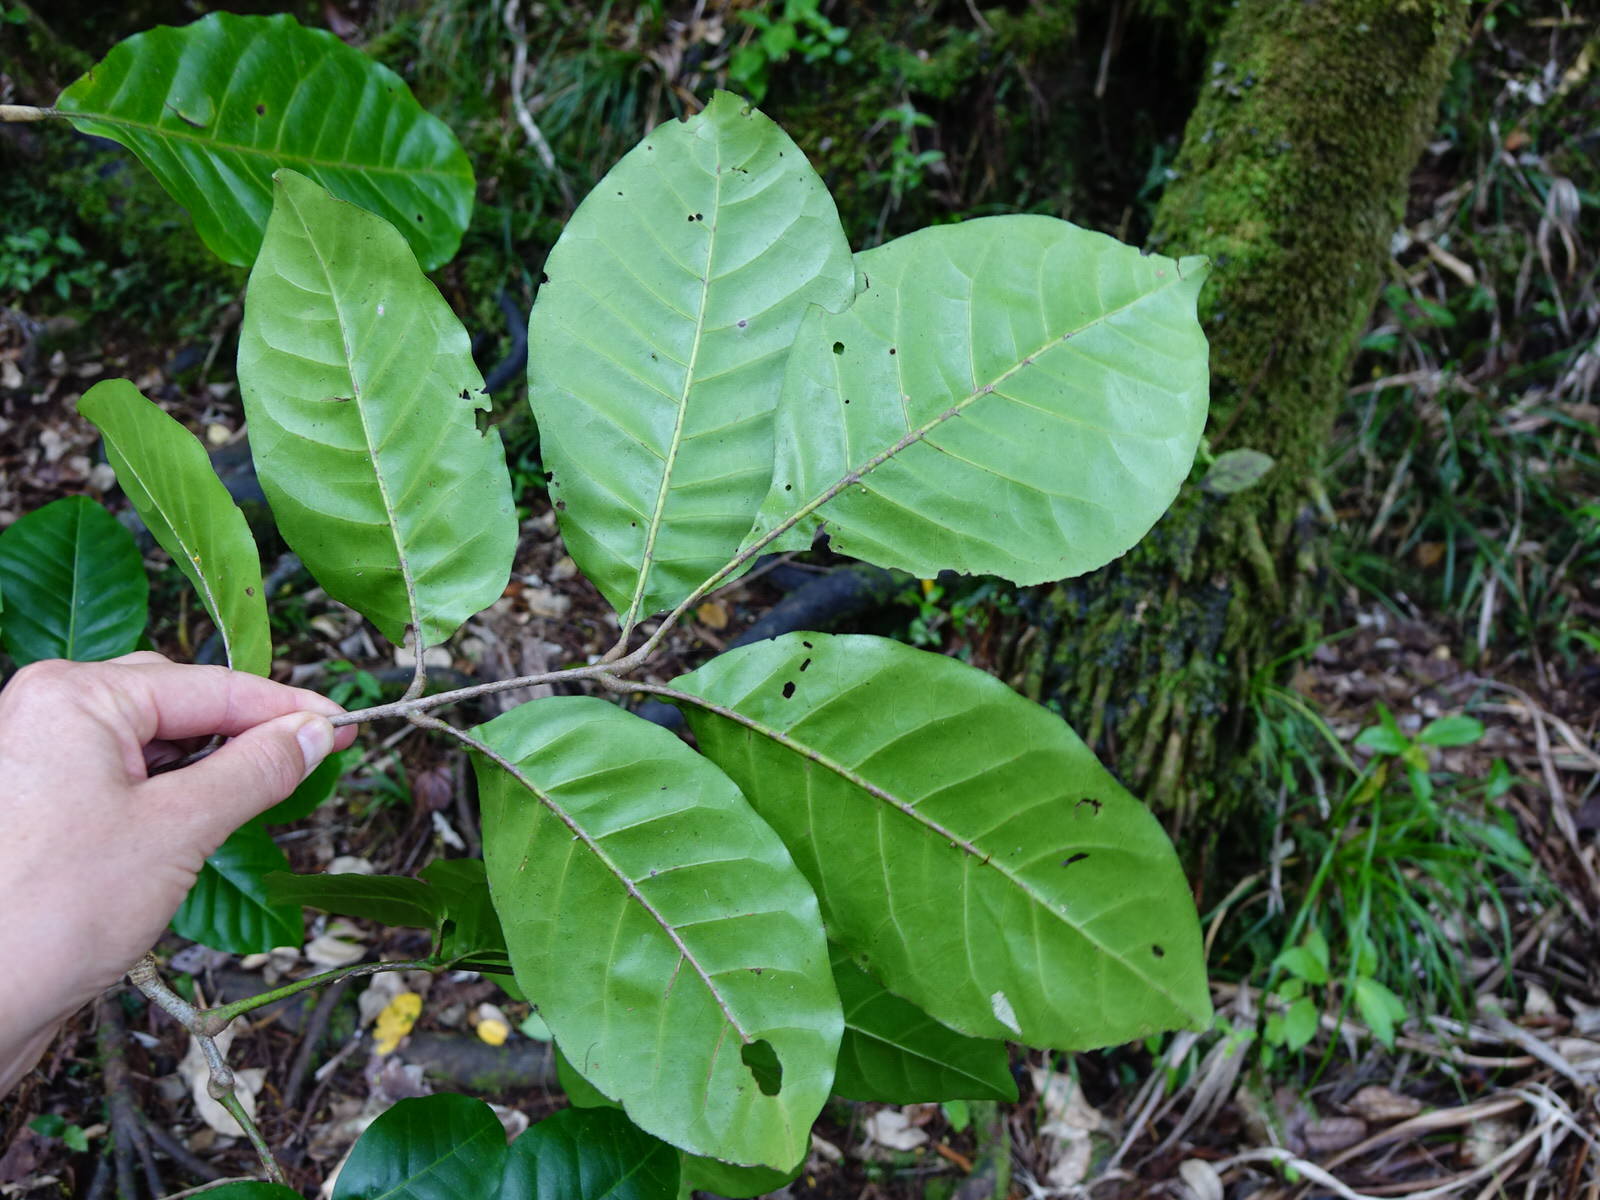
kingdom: Plantae
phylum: Tracheophyta
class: Magnoliopsida
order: Sapindales
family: Meliaceae
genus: Didymocheton
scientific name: Didymocheton spectabilis
